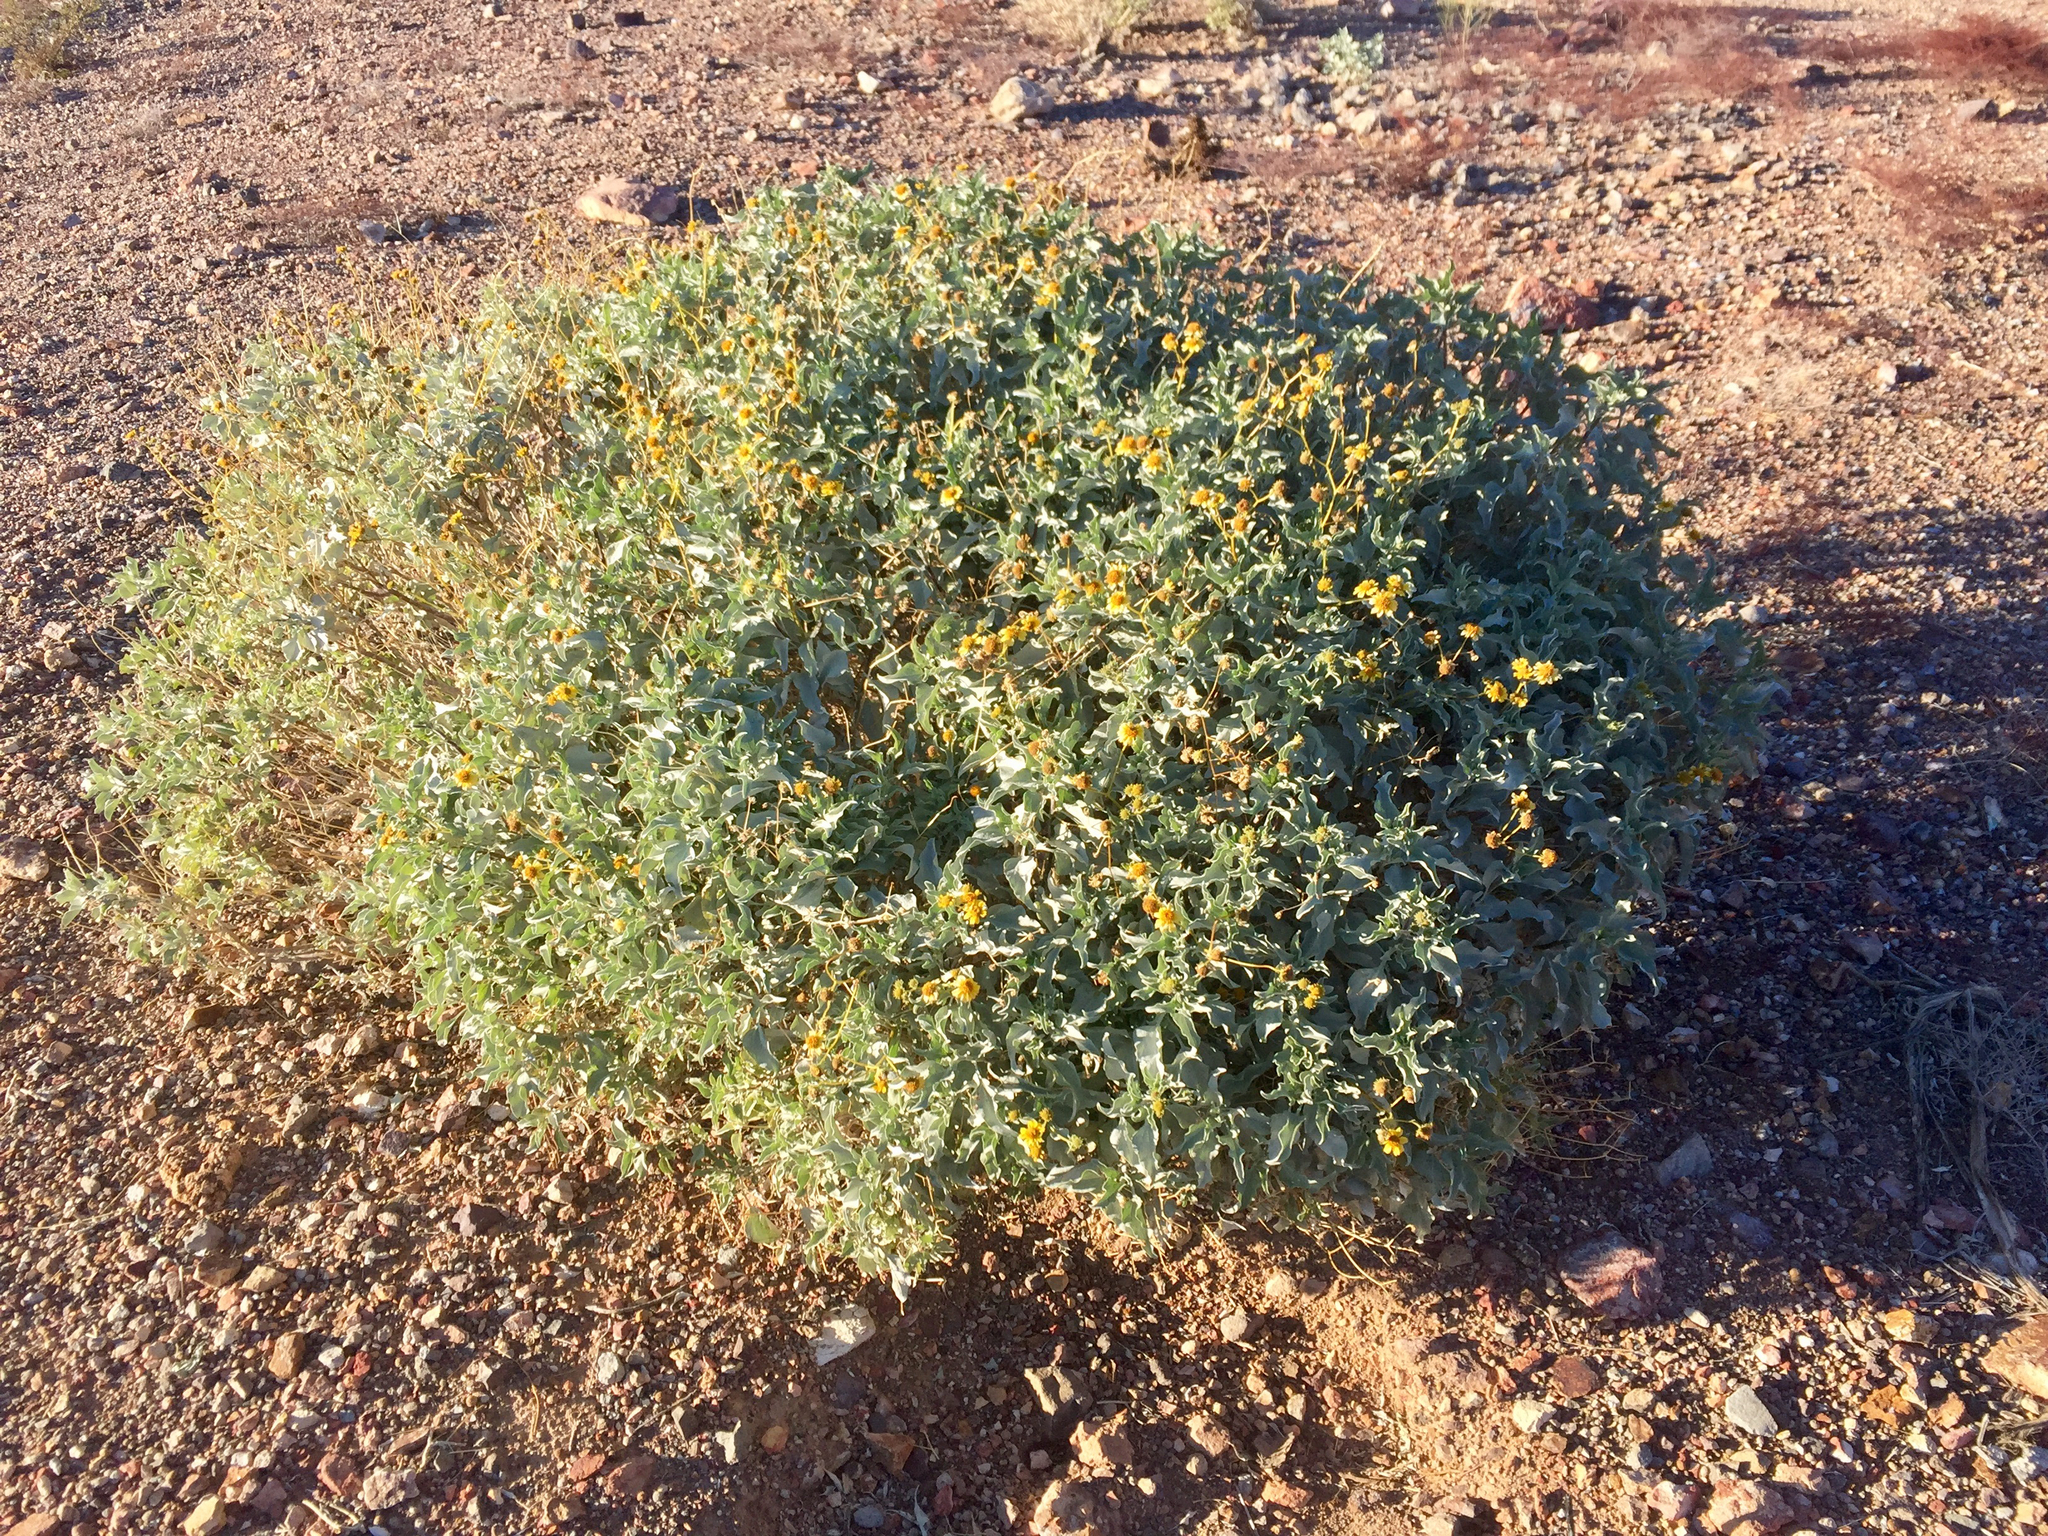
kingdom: Plantae
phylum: Tracheophyta
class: Magnoliopsida
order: Asterales
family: Asteraceae
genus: Encelia
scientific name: Encelia farinosa
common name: Brittlebush
